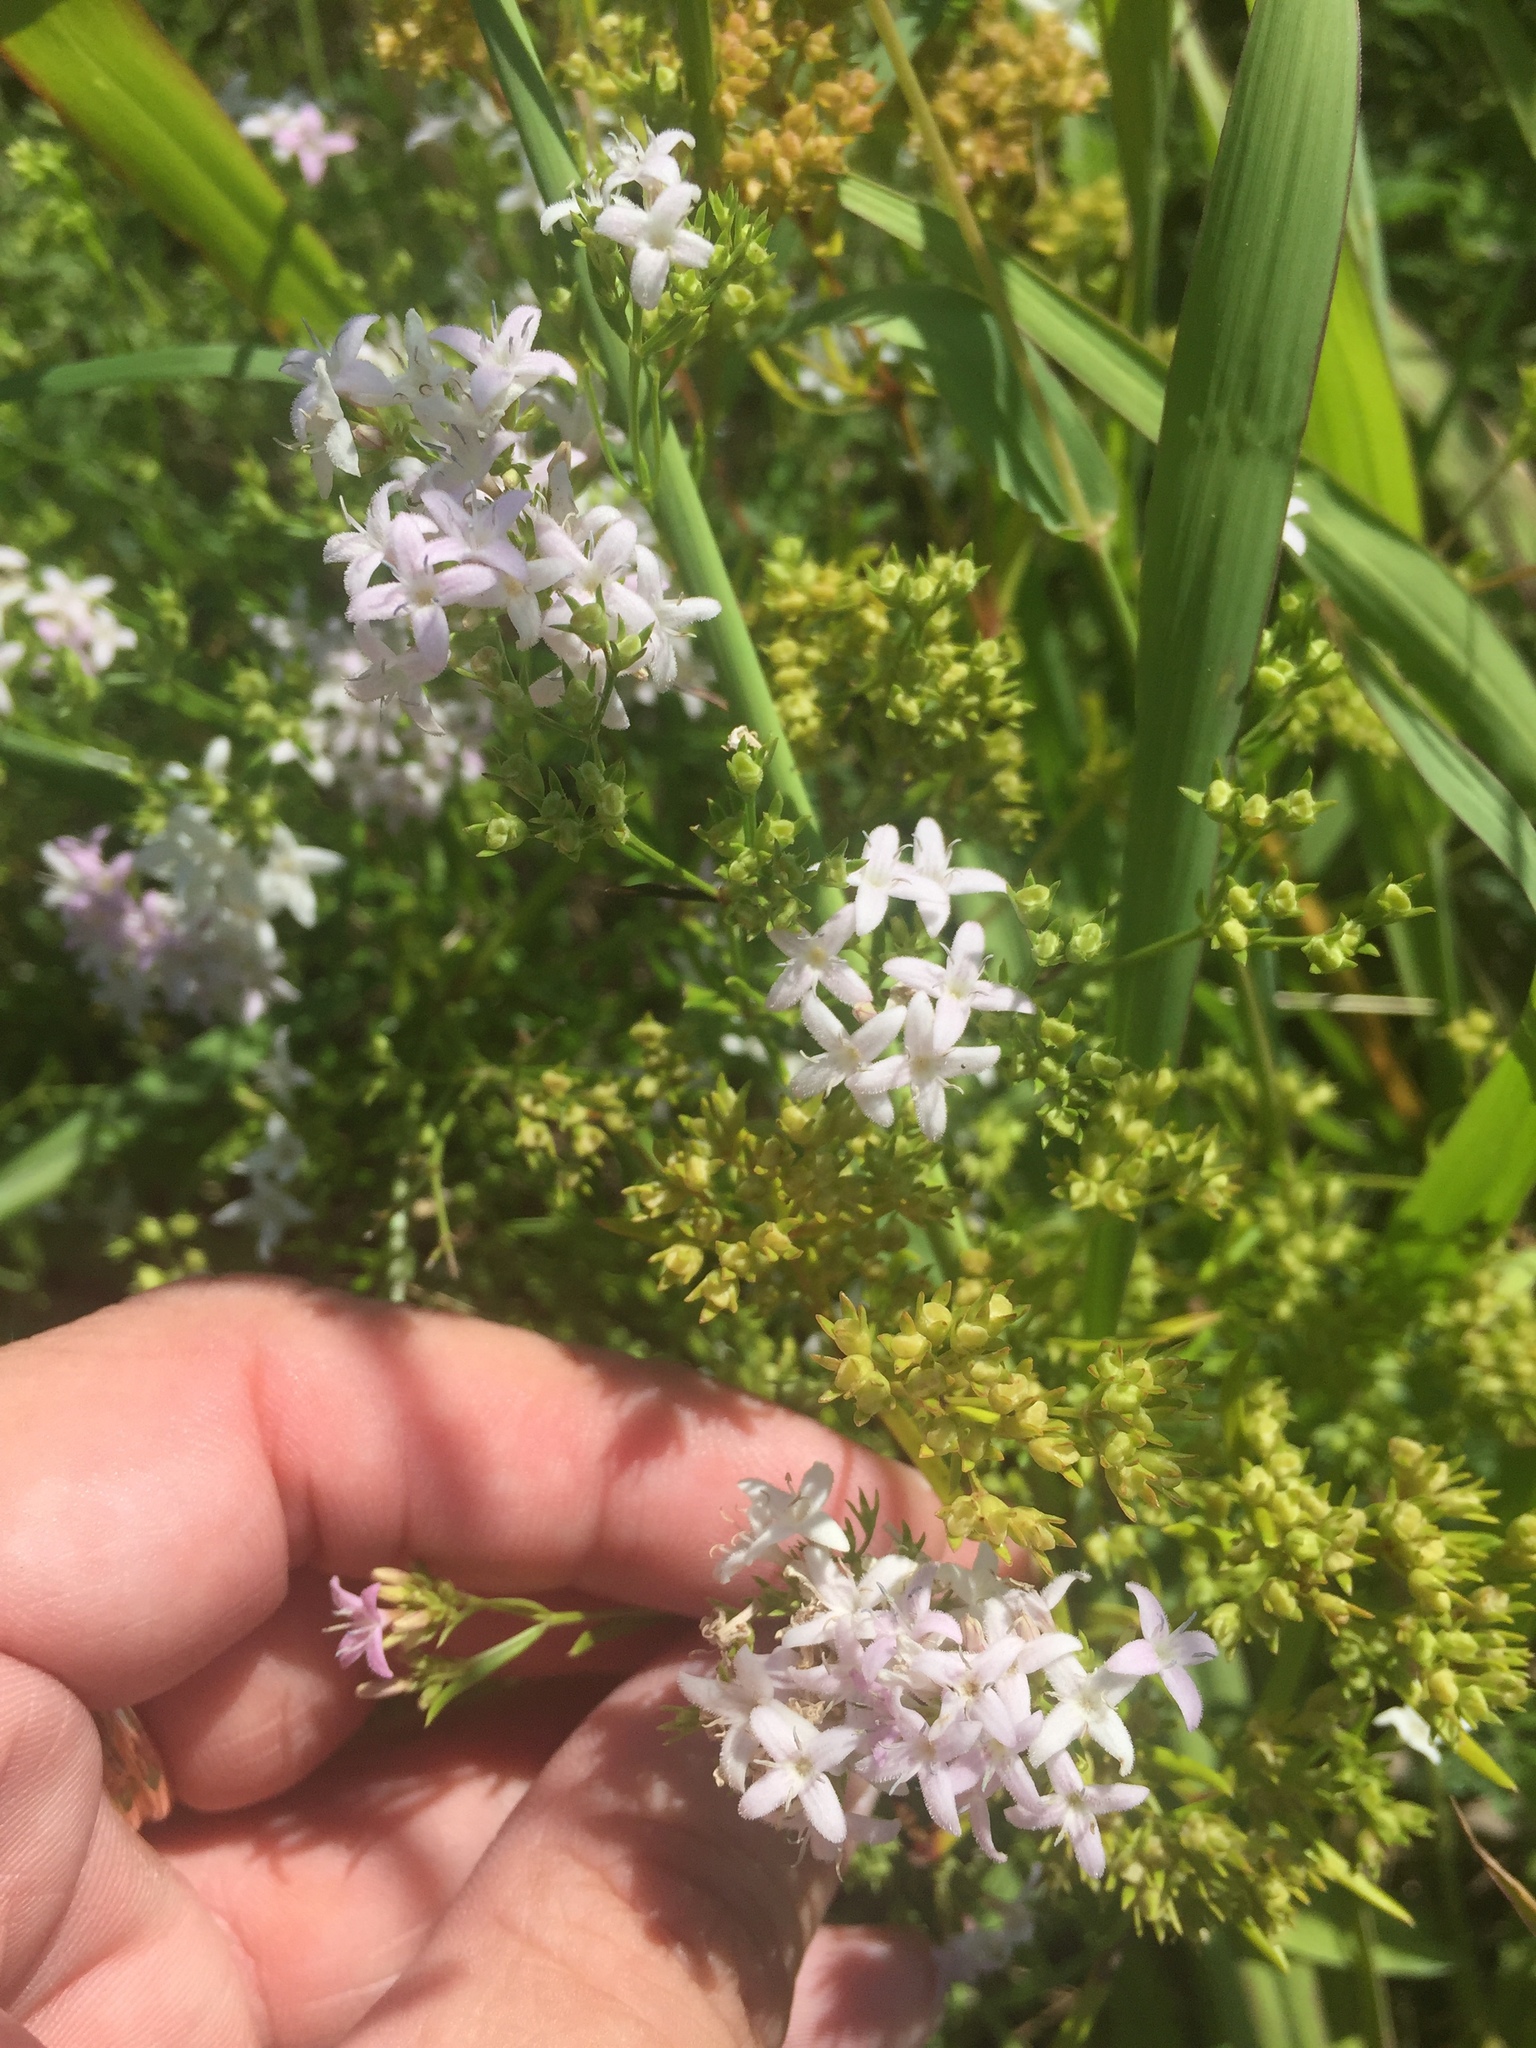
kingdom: Plantae
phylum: Tracheophyta
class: Magnoliopsida
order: Gentianales
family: Rubiaceae
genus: Stenaria
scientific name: Stenaria nigricans
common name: Diamondflowers
